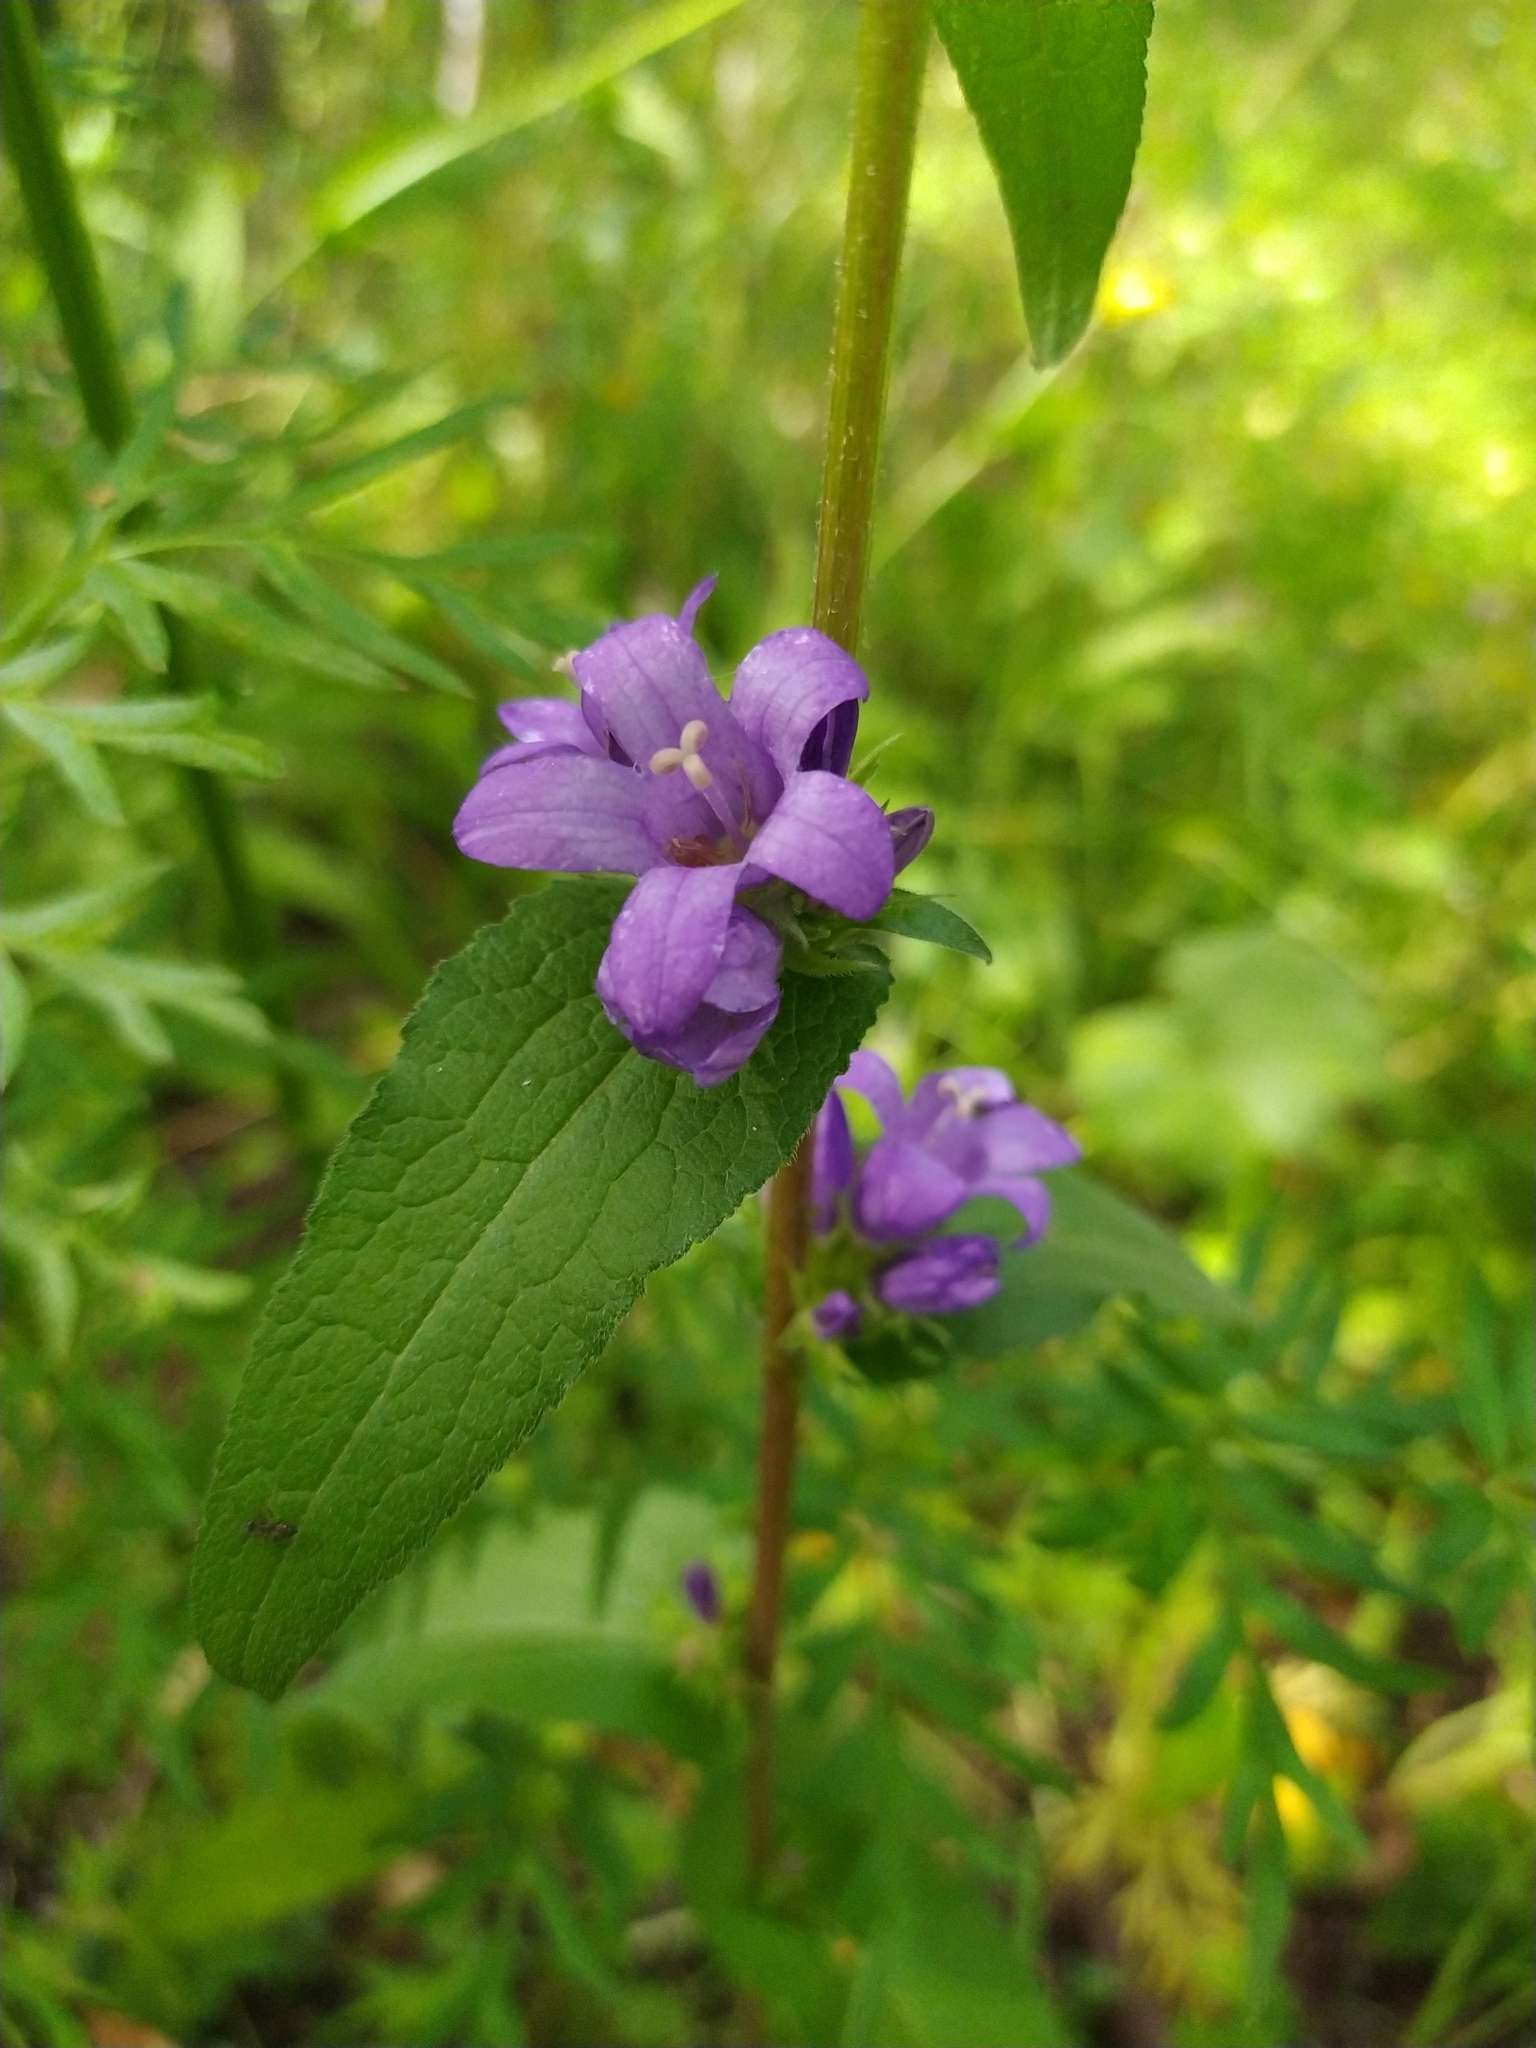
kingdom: Plantae
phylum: Tracheophyta
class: Magnoliopsida
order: Asterales
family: Campanulaceae
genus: Campanula
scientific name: Campanula glomerata
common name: Clustered bellflower
